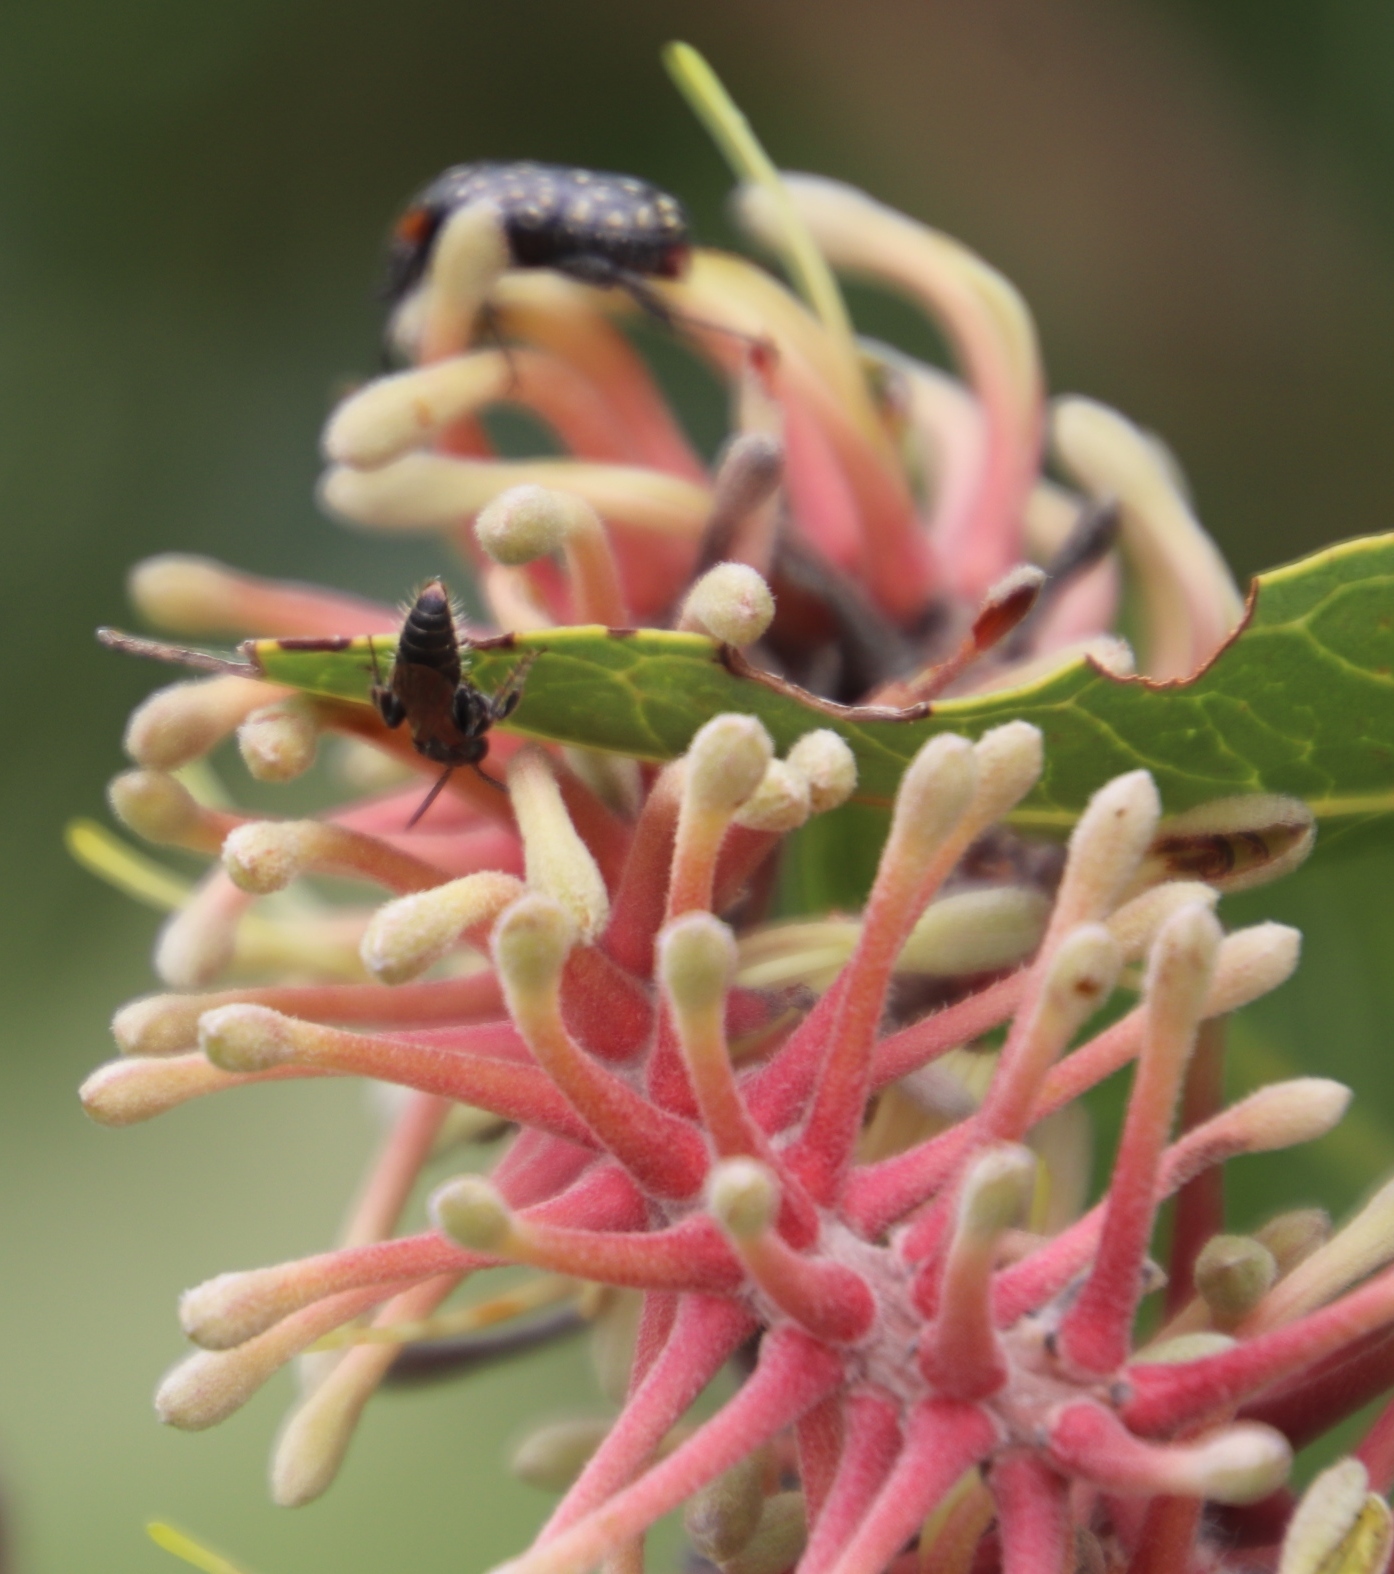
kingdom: Animalia
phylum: Arthropoda
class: Insecta
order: Coleoptera
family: Scarabaeidae
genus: Oxythyrea
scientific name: Oxythyrea
